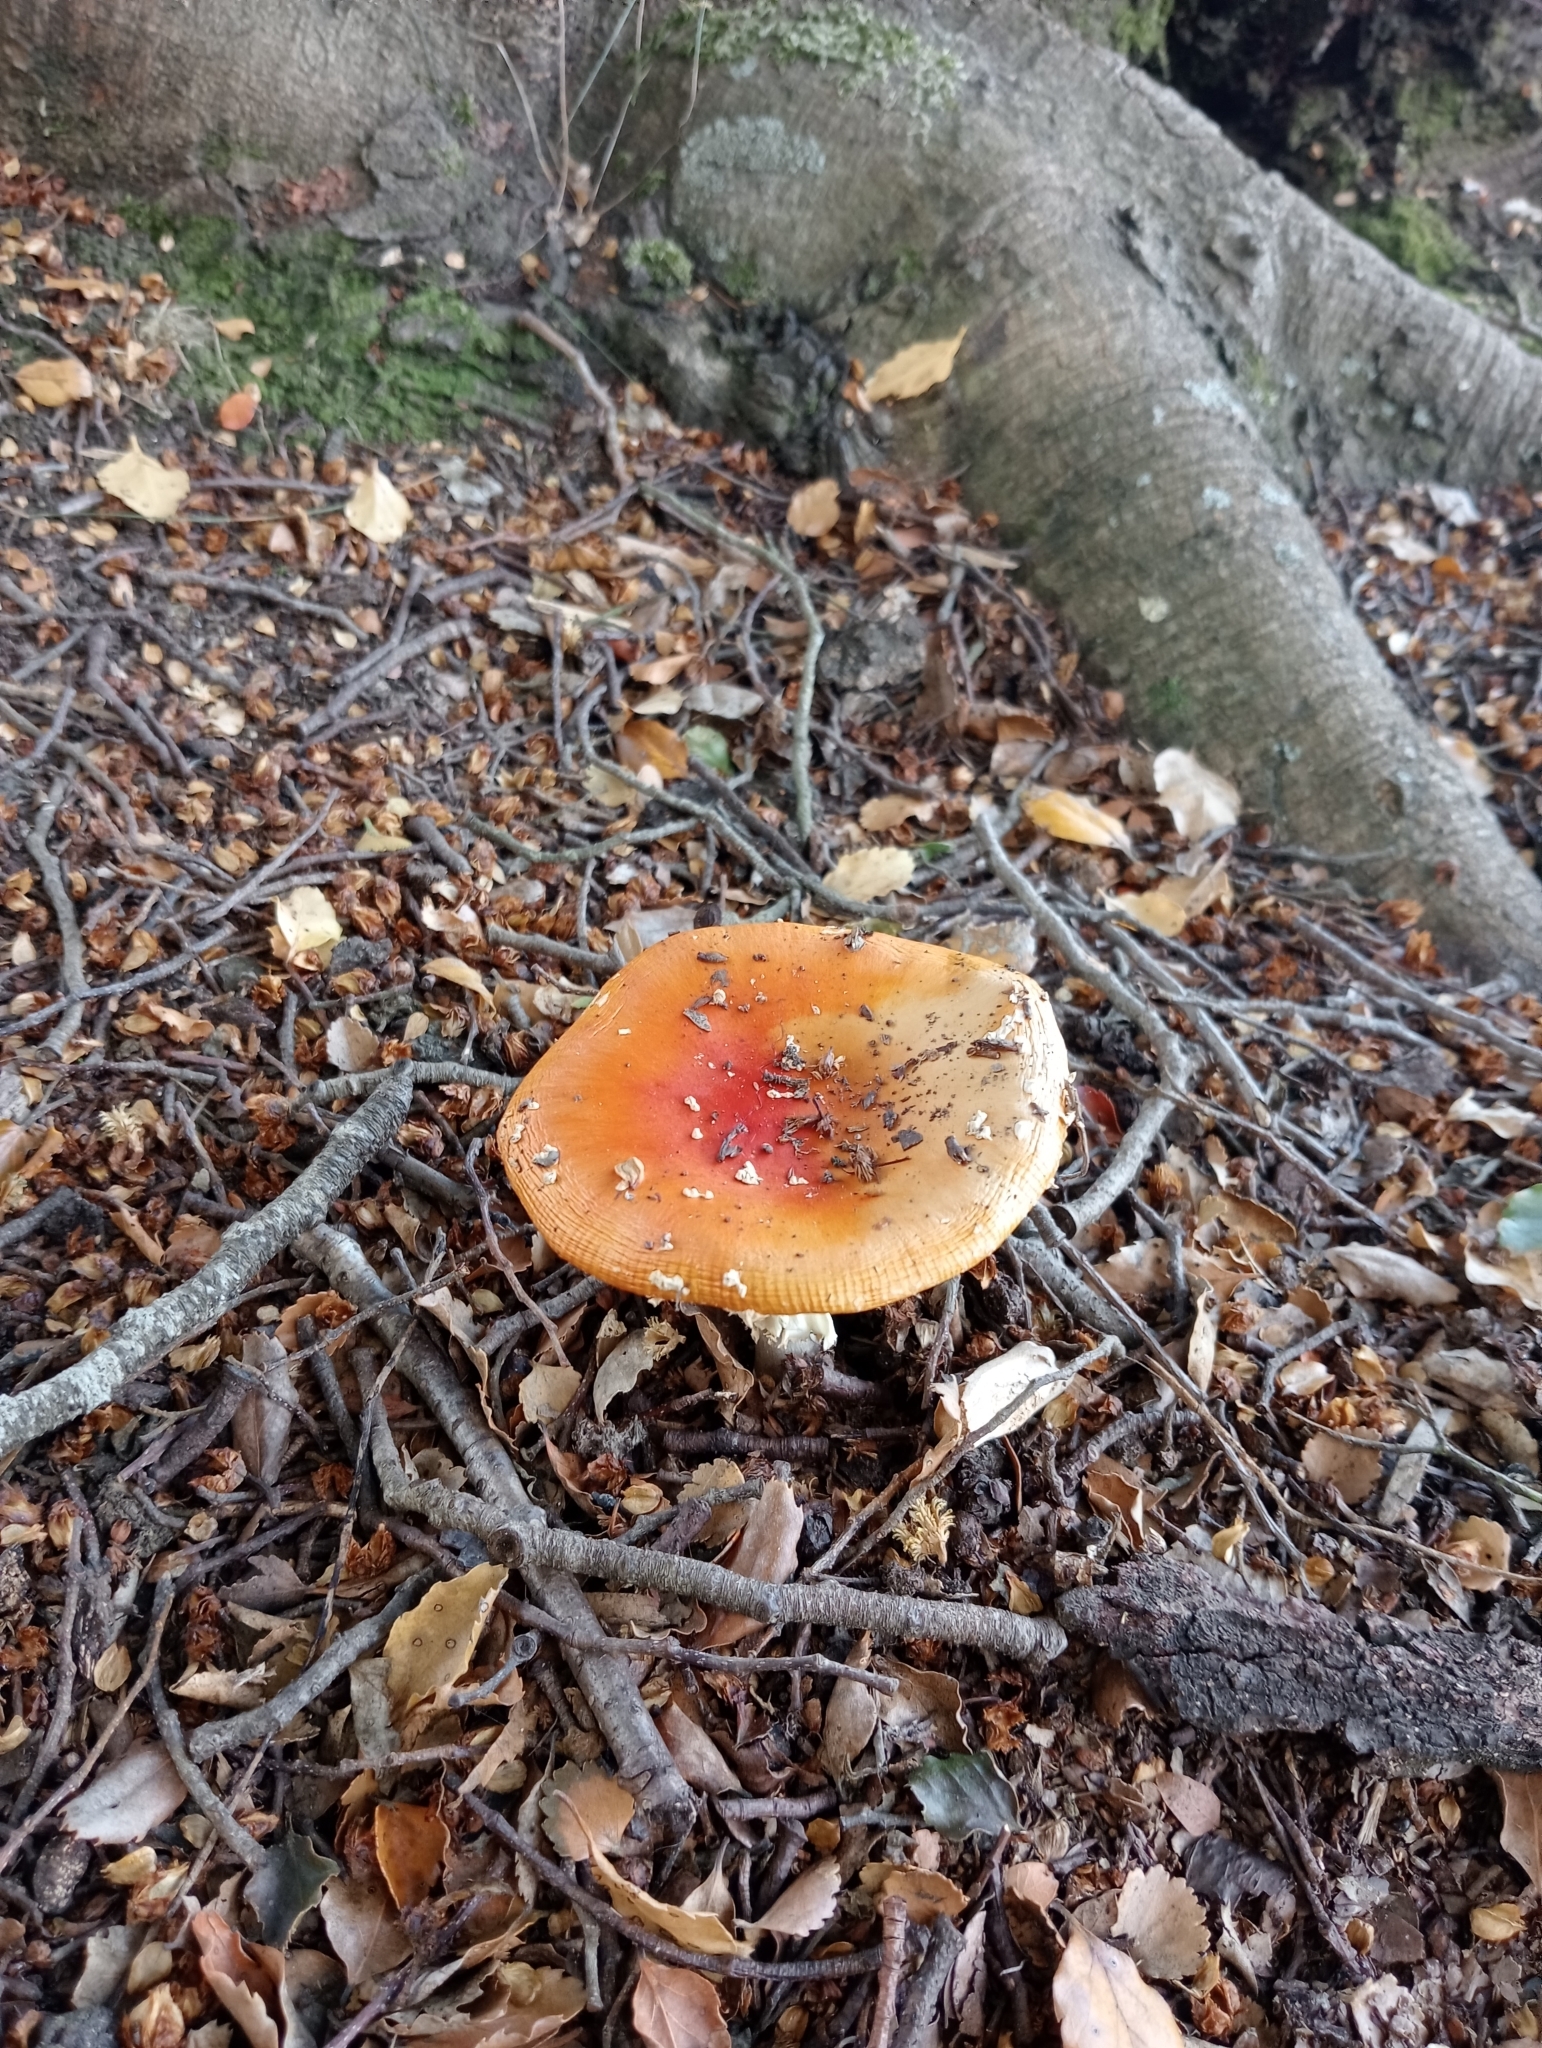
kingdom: Fungi
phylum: Basidiomycota
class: Agaricomycetes
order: Agaricales
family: Amanitaceae
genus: Amanita
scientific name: Amanita muscaria
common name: Fly agaric
